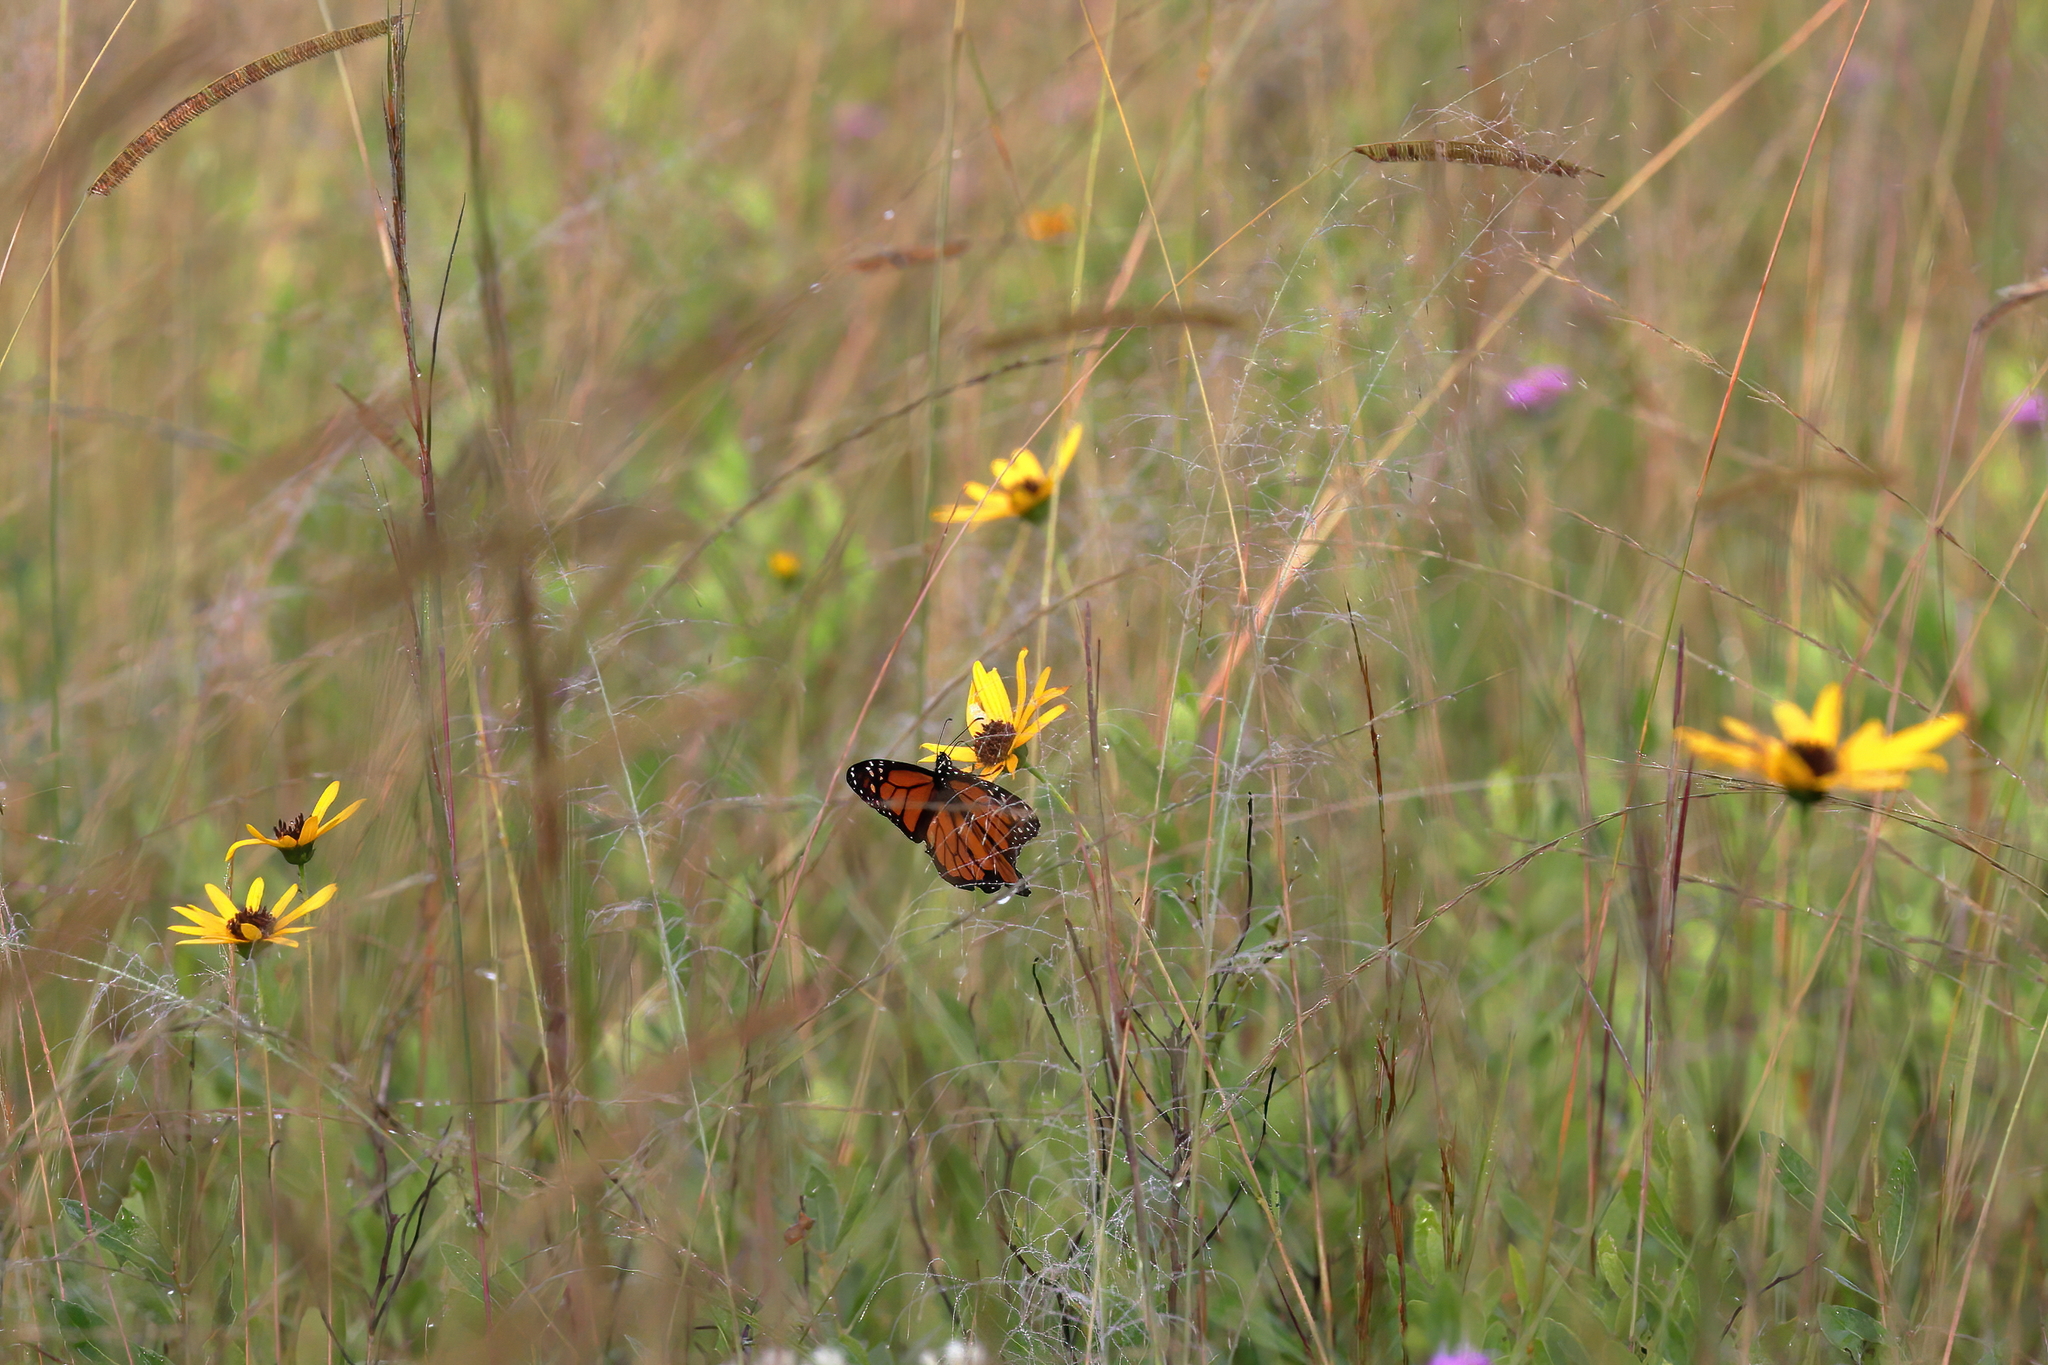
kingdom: Animalia
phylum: Arthropoda
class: Insecta
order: Lepidoptera
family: Nymphalidae
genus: Danaus
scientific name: Danaus plexippus
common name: Monarch
